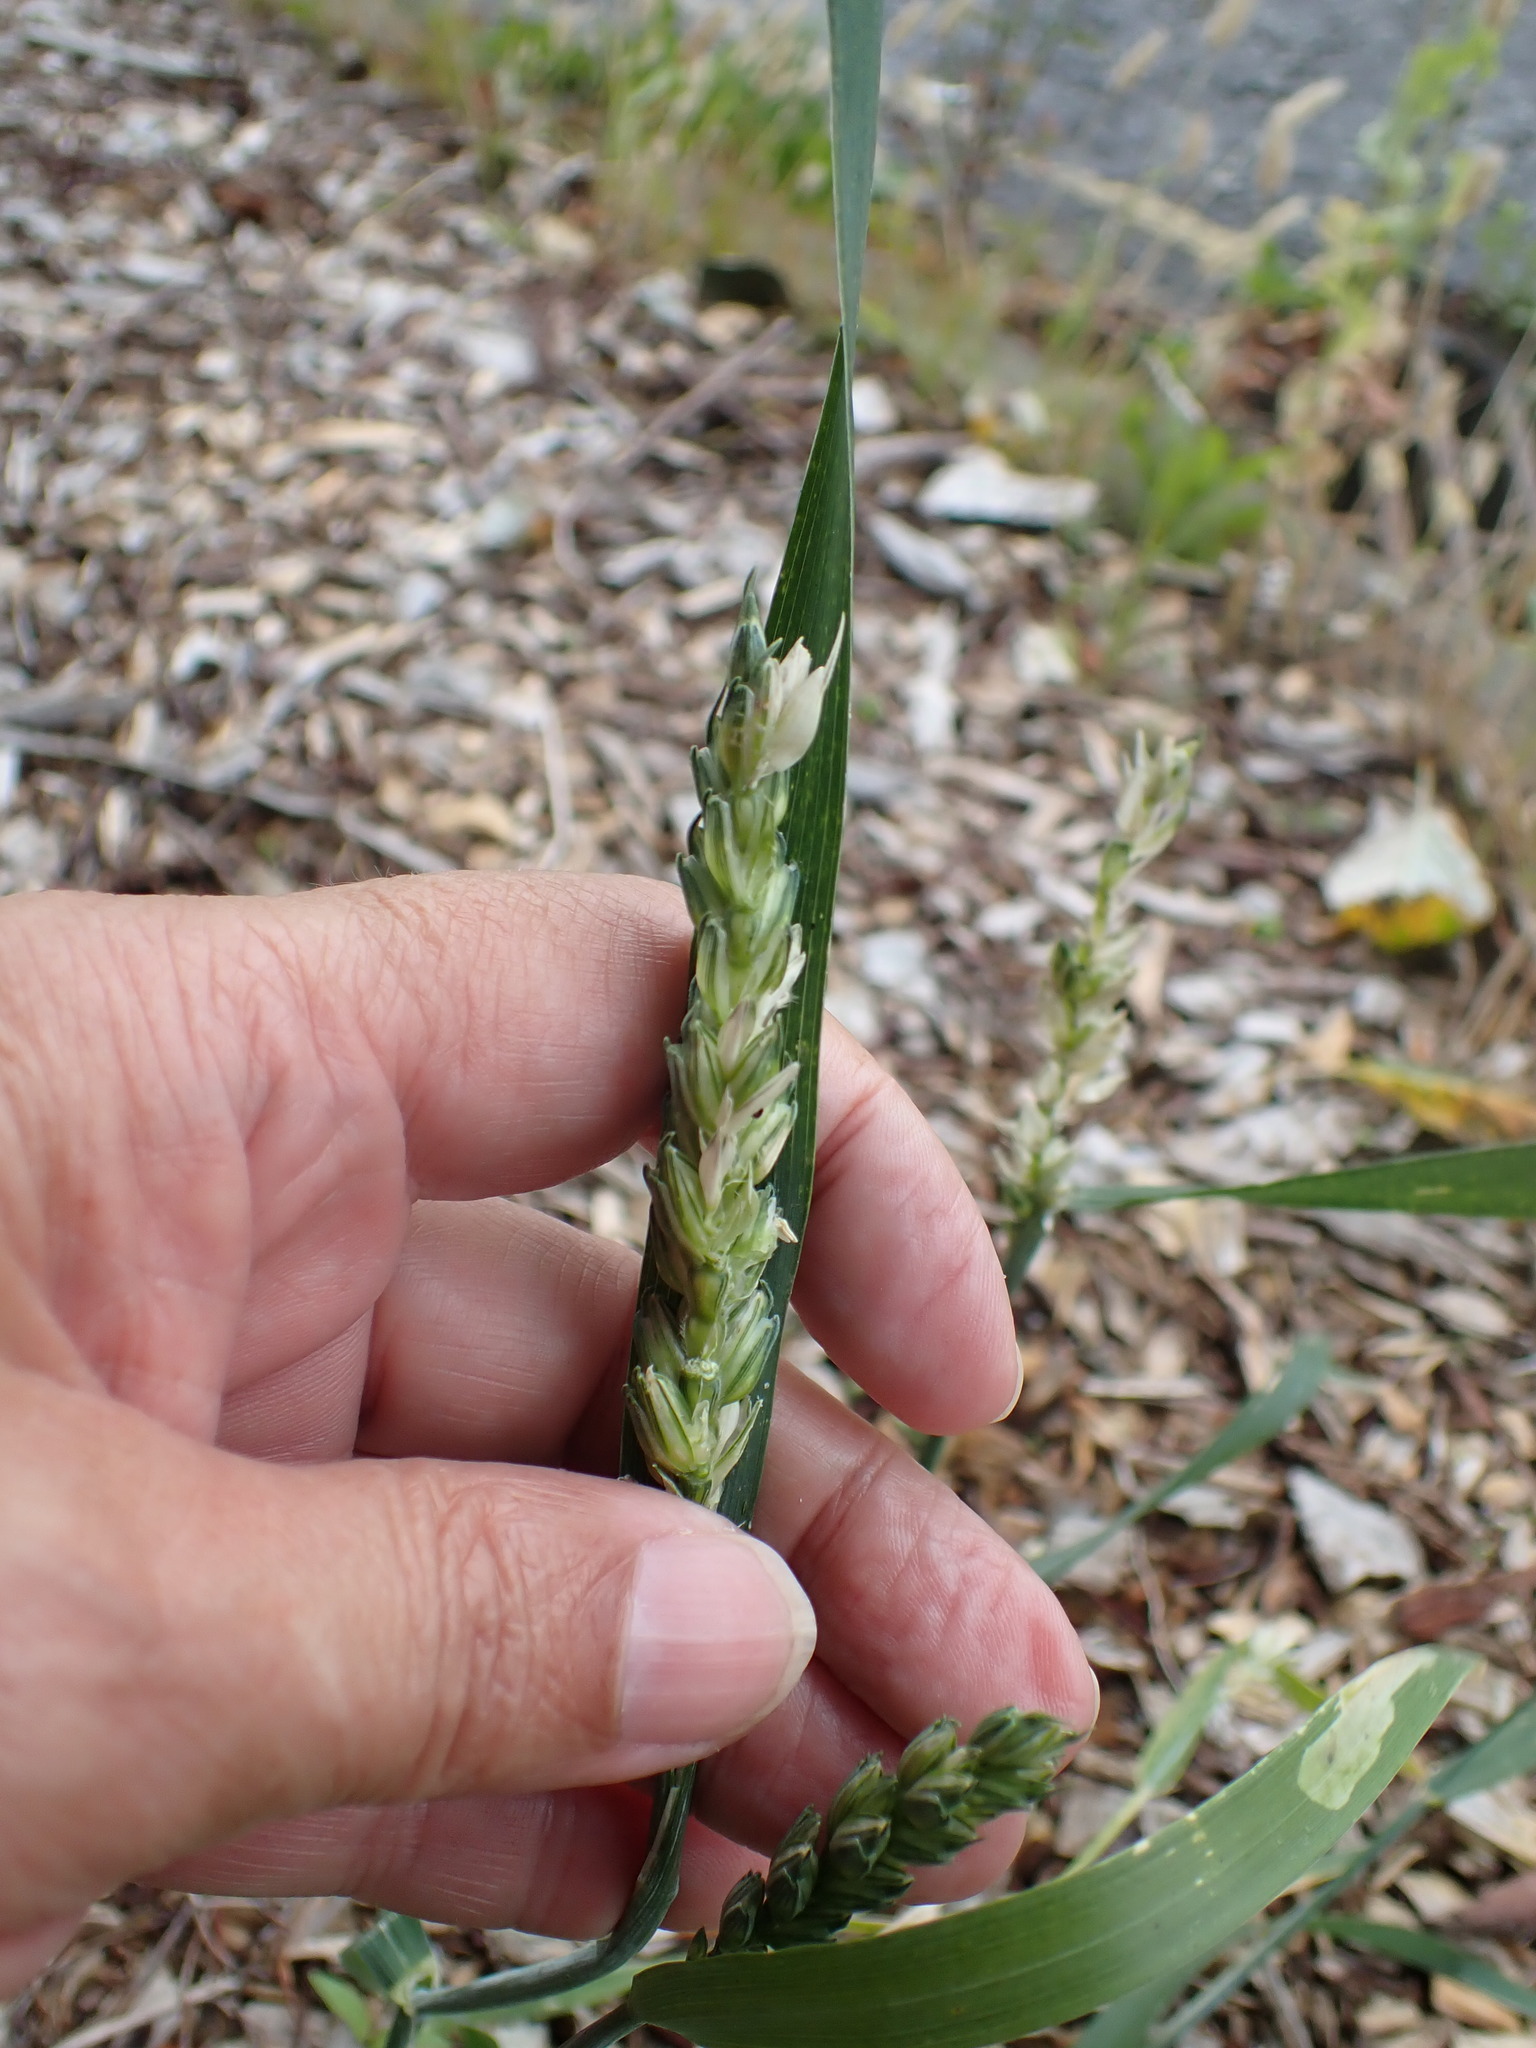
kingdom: Plantae
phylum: Tracheophyta
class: Liliopsida
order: Poales
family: Poaceae
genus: Triticum
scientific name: Triticum aestivum
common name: Common wheat
